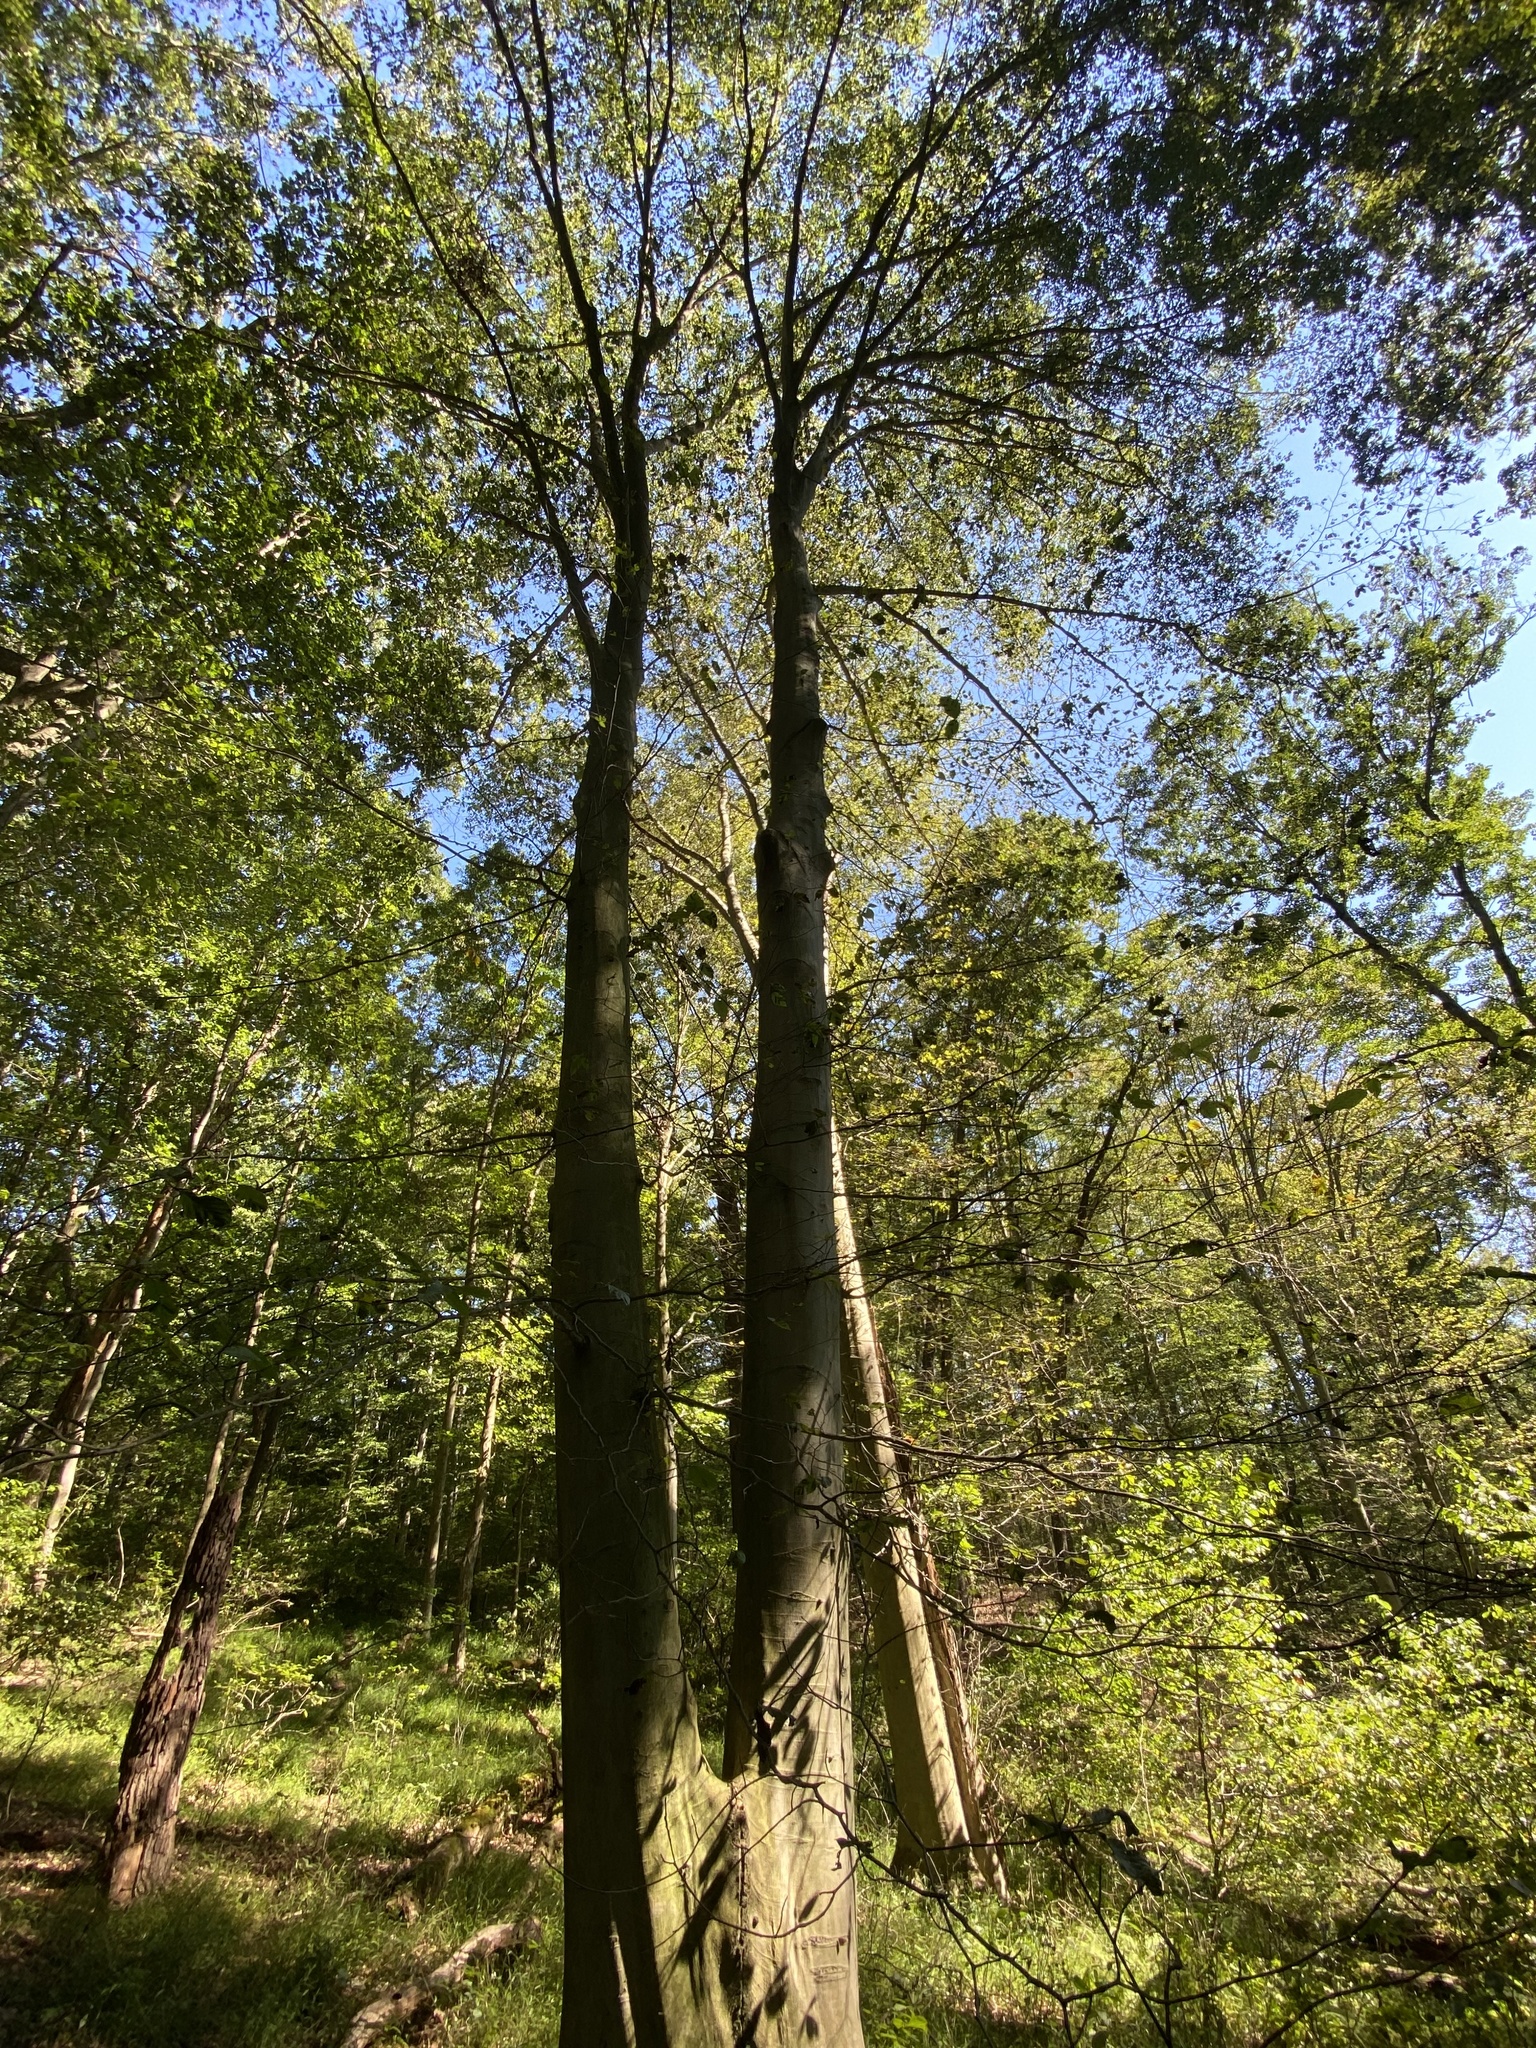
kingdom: Plantae
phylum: Tracheophyta
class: Magnoliopsida
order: Fagales
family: Fagaceae
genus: Fagus
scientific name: Fagus grandifolia
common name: American beech
